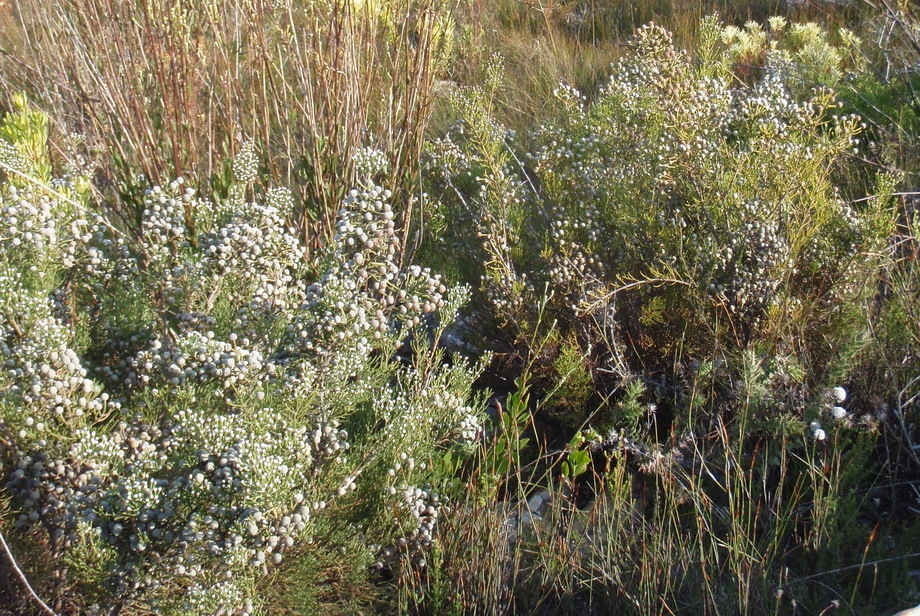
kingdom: Plantae
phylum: Tracheophyta
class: Magnoliopsida
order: Bruniales
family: Bruniaceae
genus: Brunia
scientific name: Brunia noduliflora
